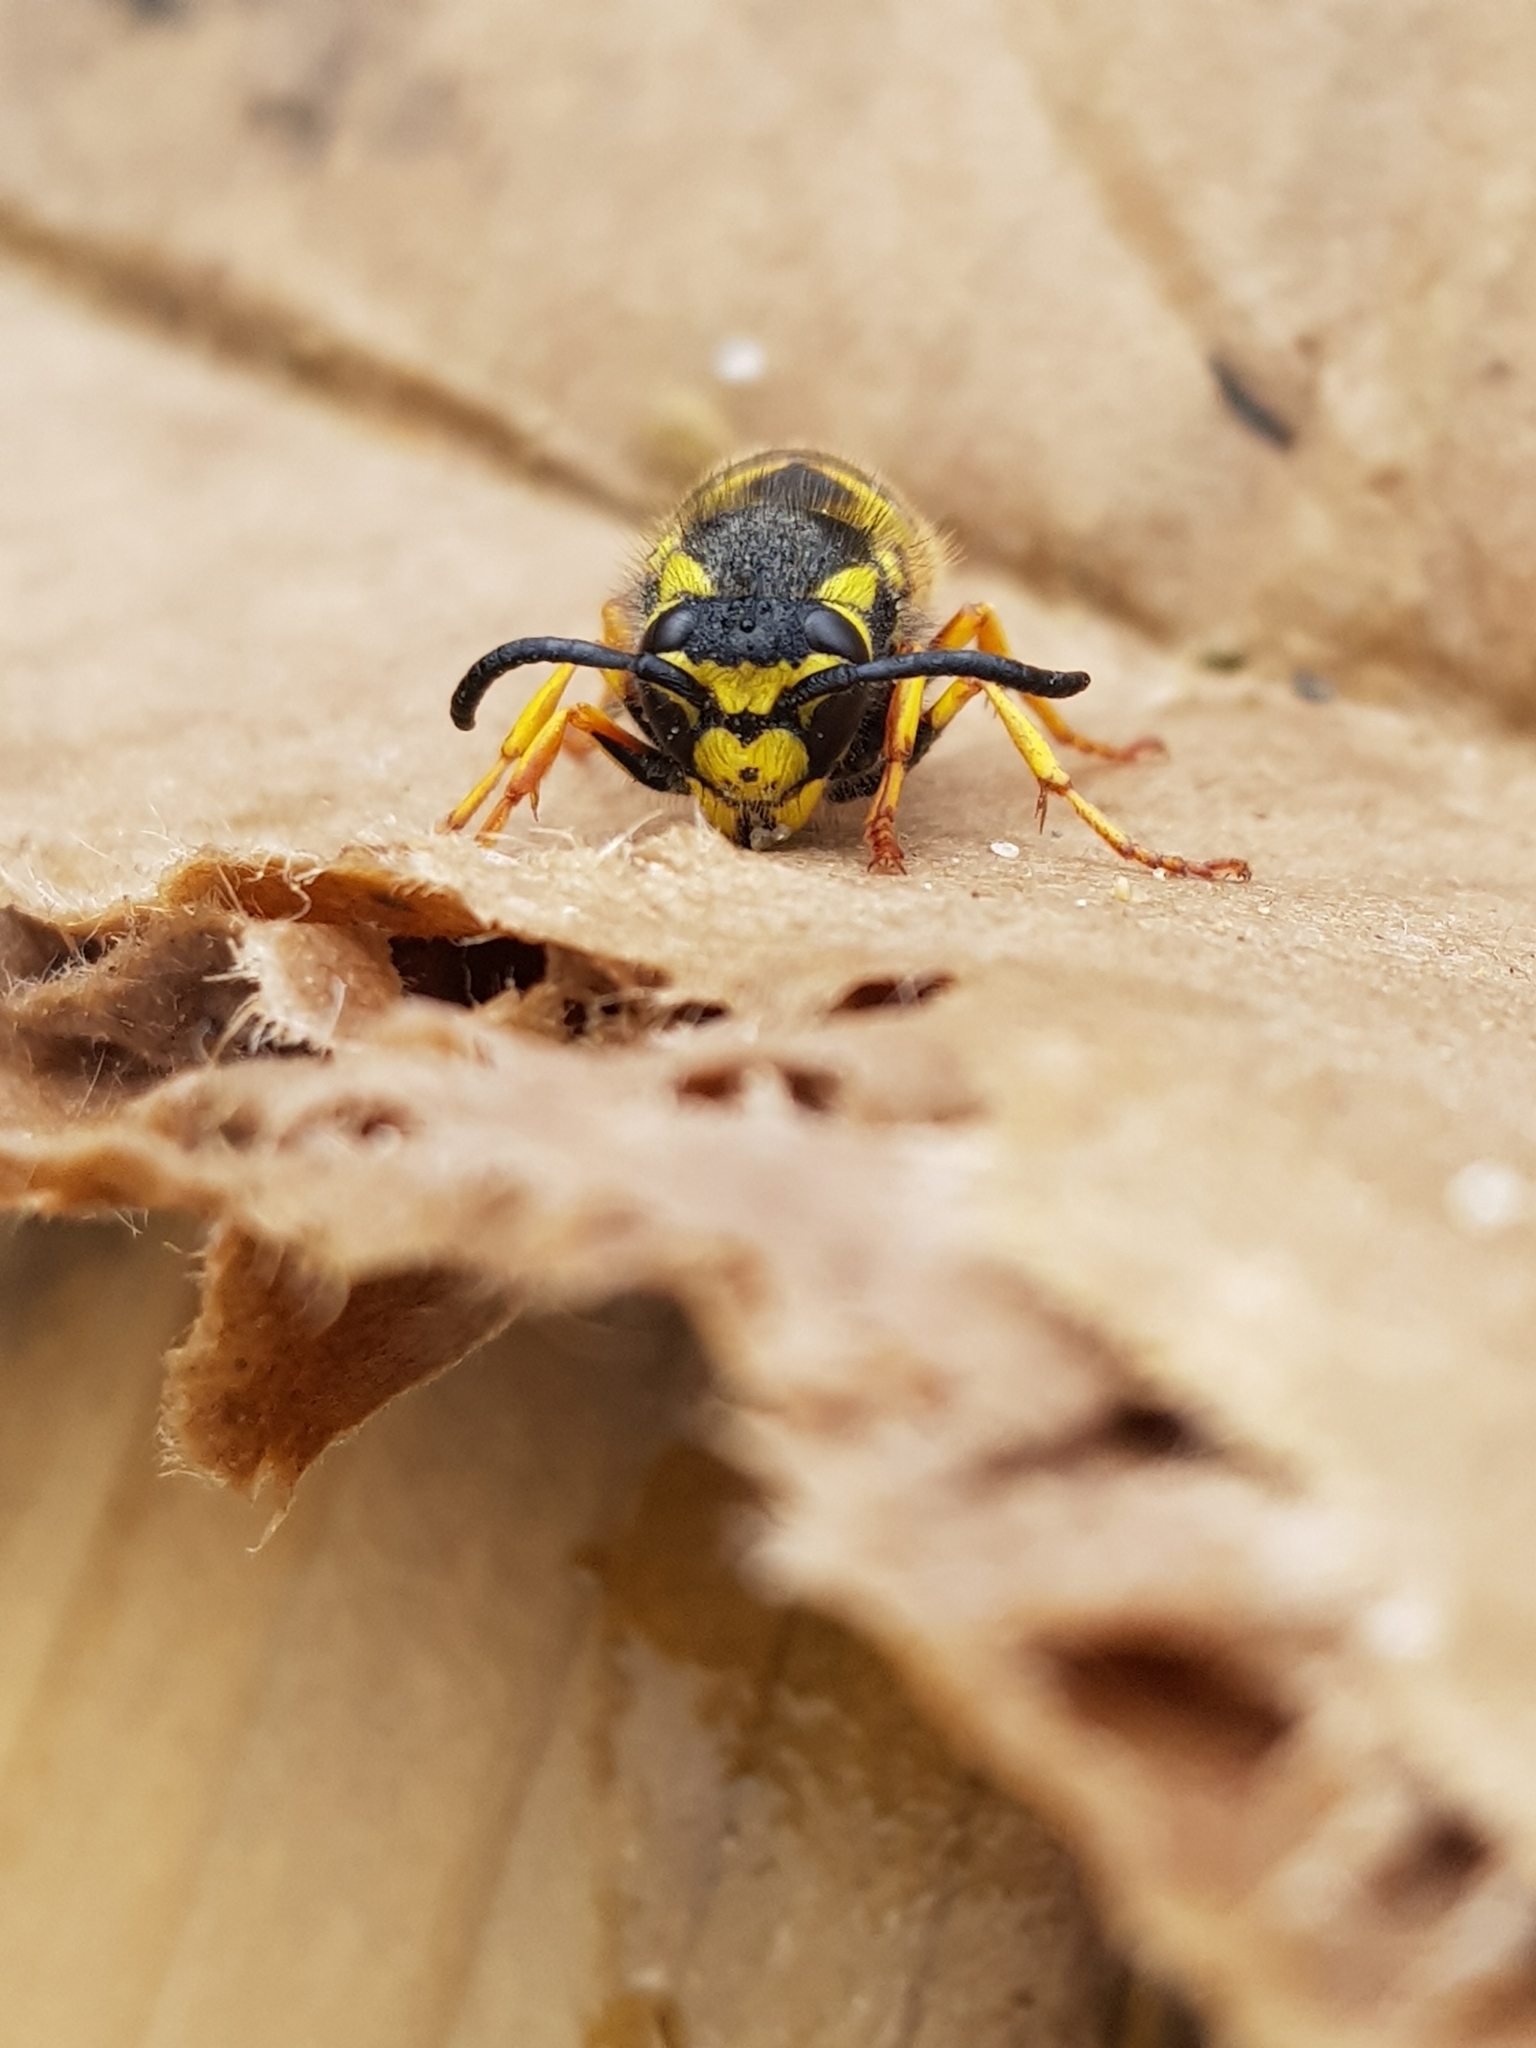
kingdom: Animalia
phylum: Arthropoda
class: Insecta
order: Hymenoptera
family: Vespidae
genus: Vespula
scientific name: Vespula germanica
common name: German wasp
